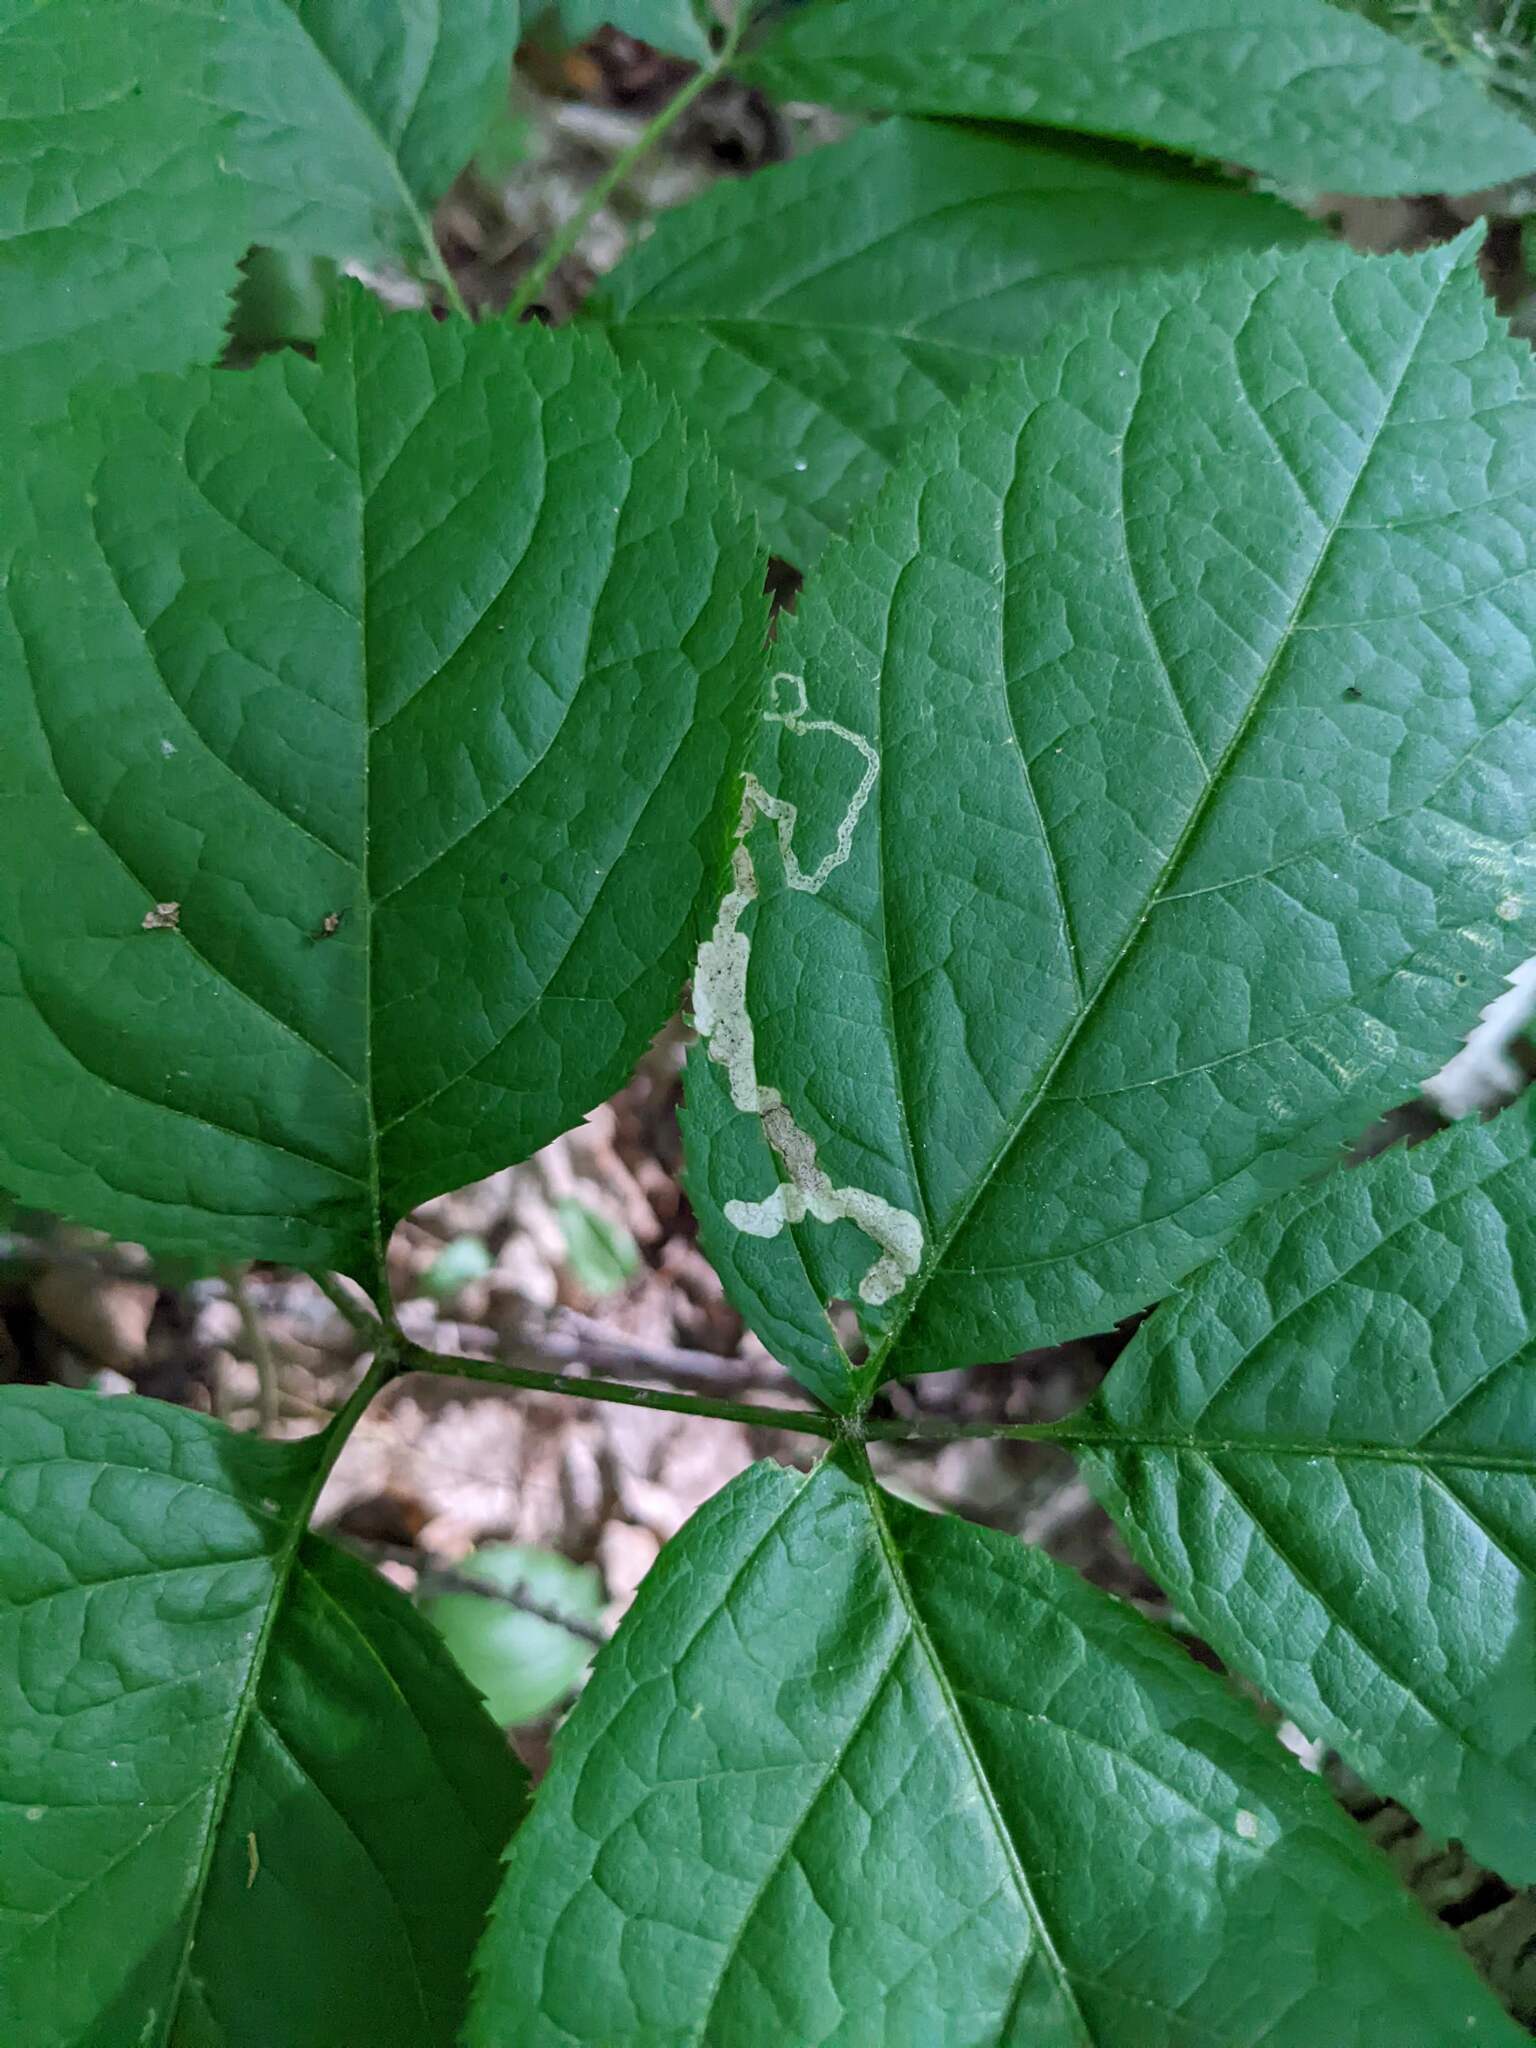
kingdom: Animalia
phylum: Arthropoda
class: Insecta
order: Diptera
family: Agromyzidae
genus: Phytomyza
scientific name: Phytomyza aralivora
